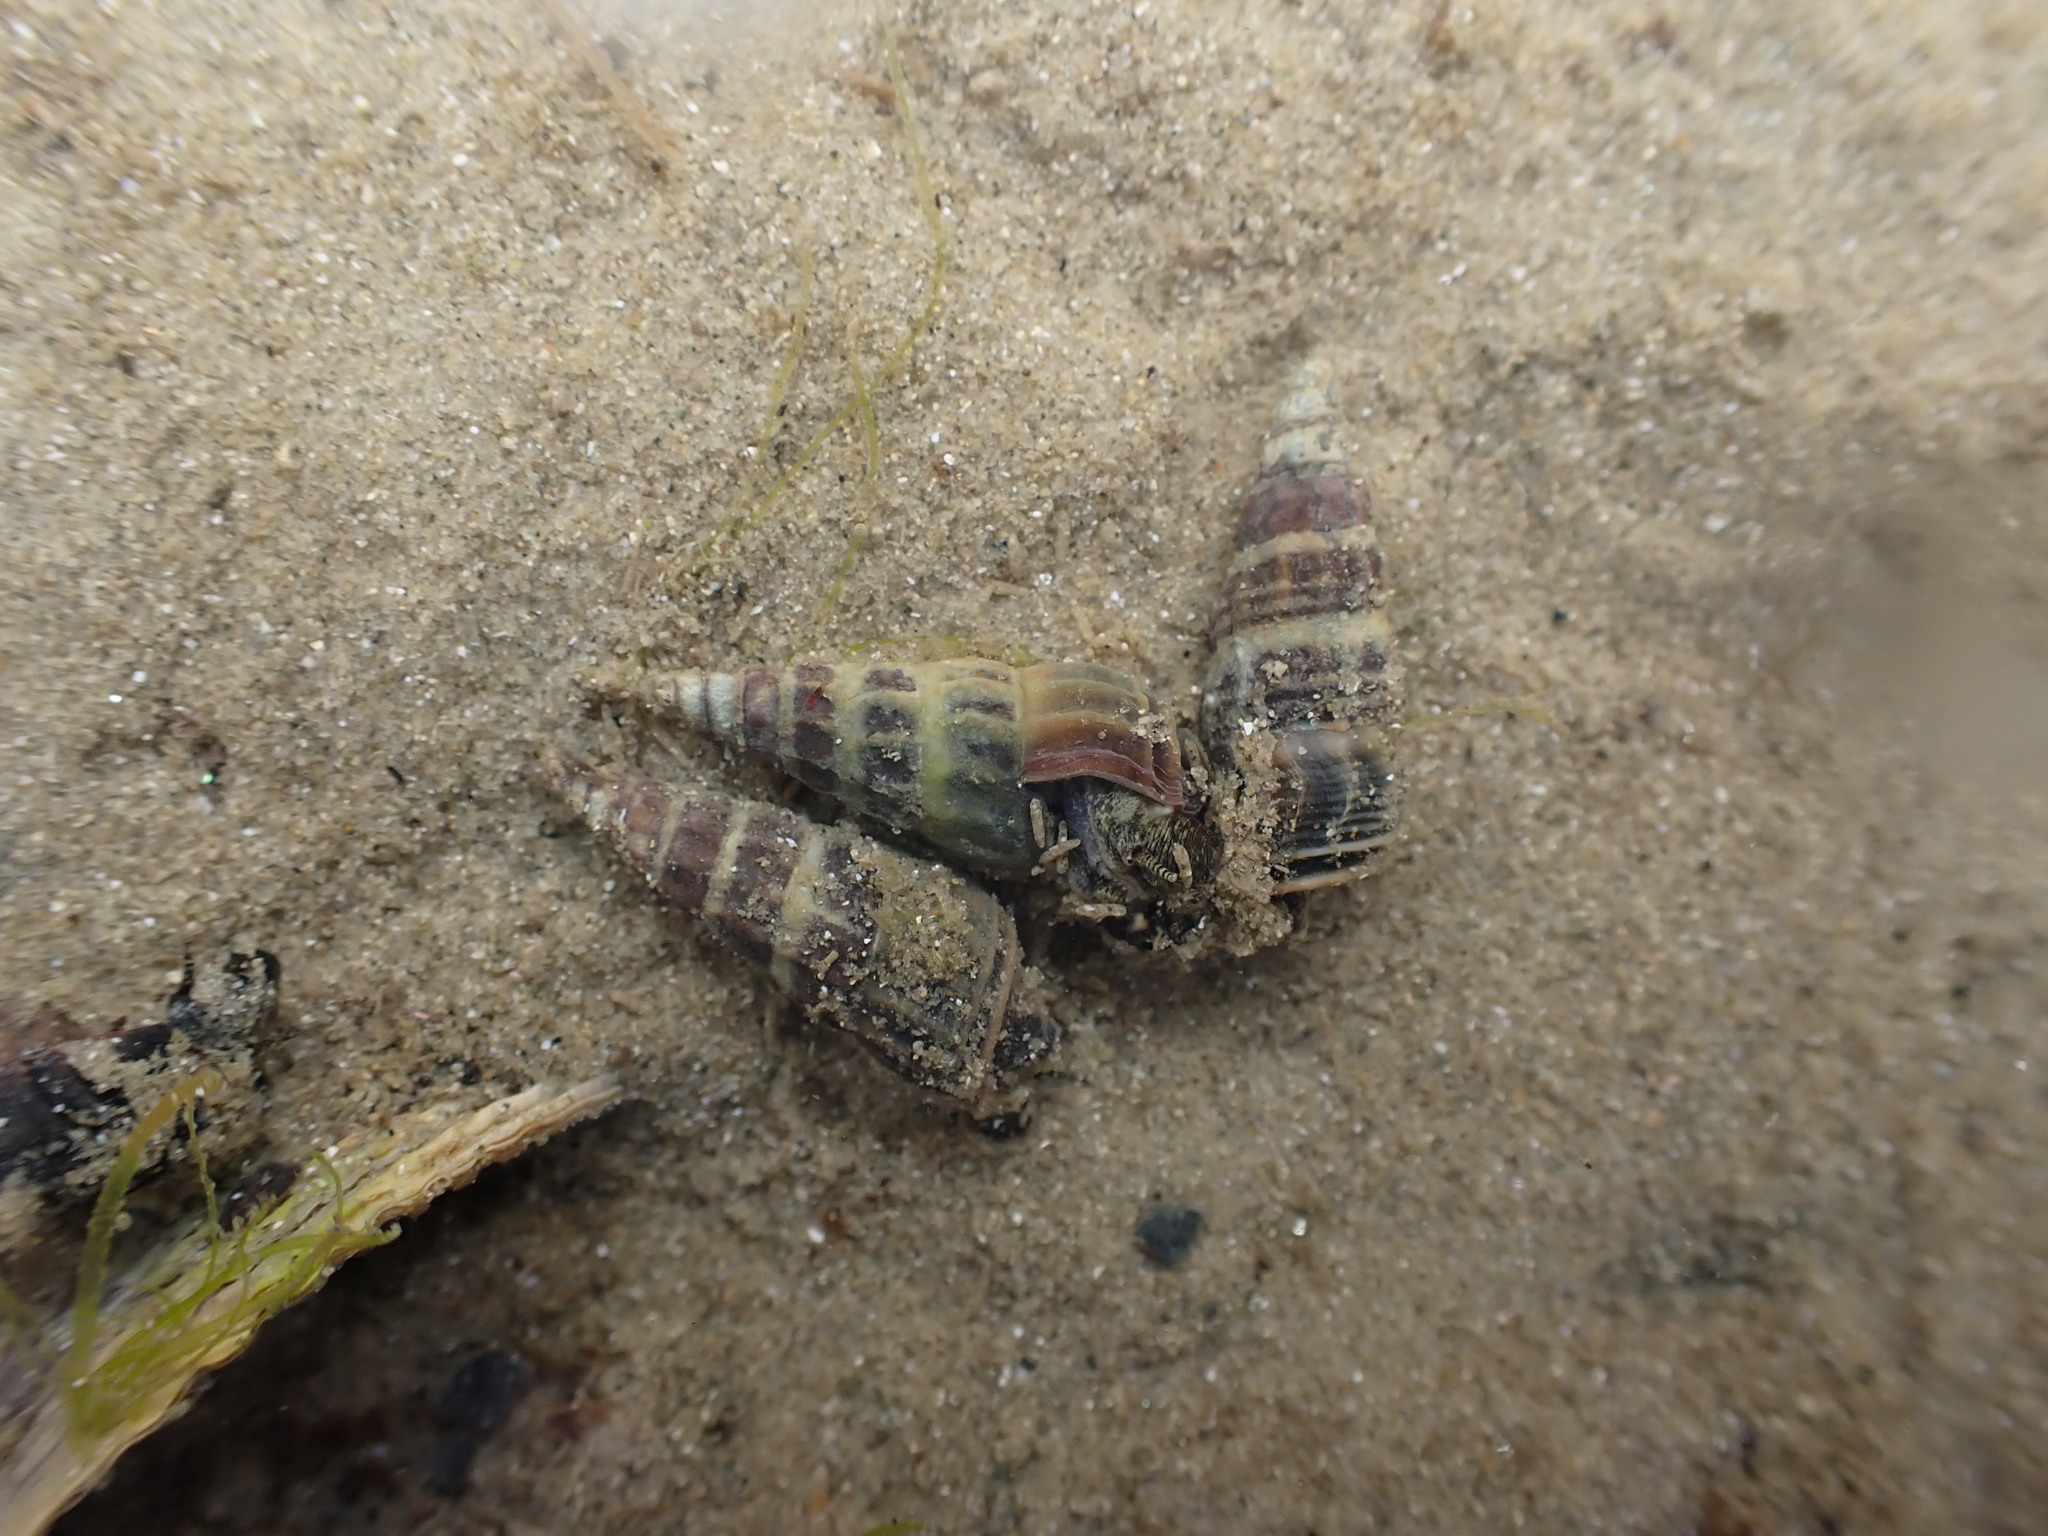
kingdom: Animalia
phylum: Mollusca
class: Gastropoda
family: Batillariidae
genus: Zeacumantus
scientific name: Zeacumantus lutulentus
